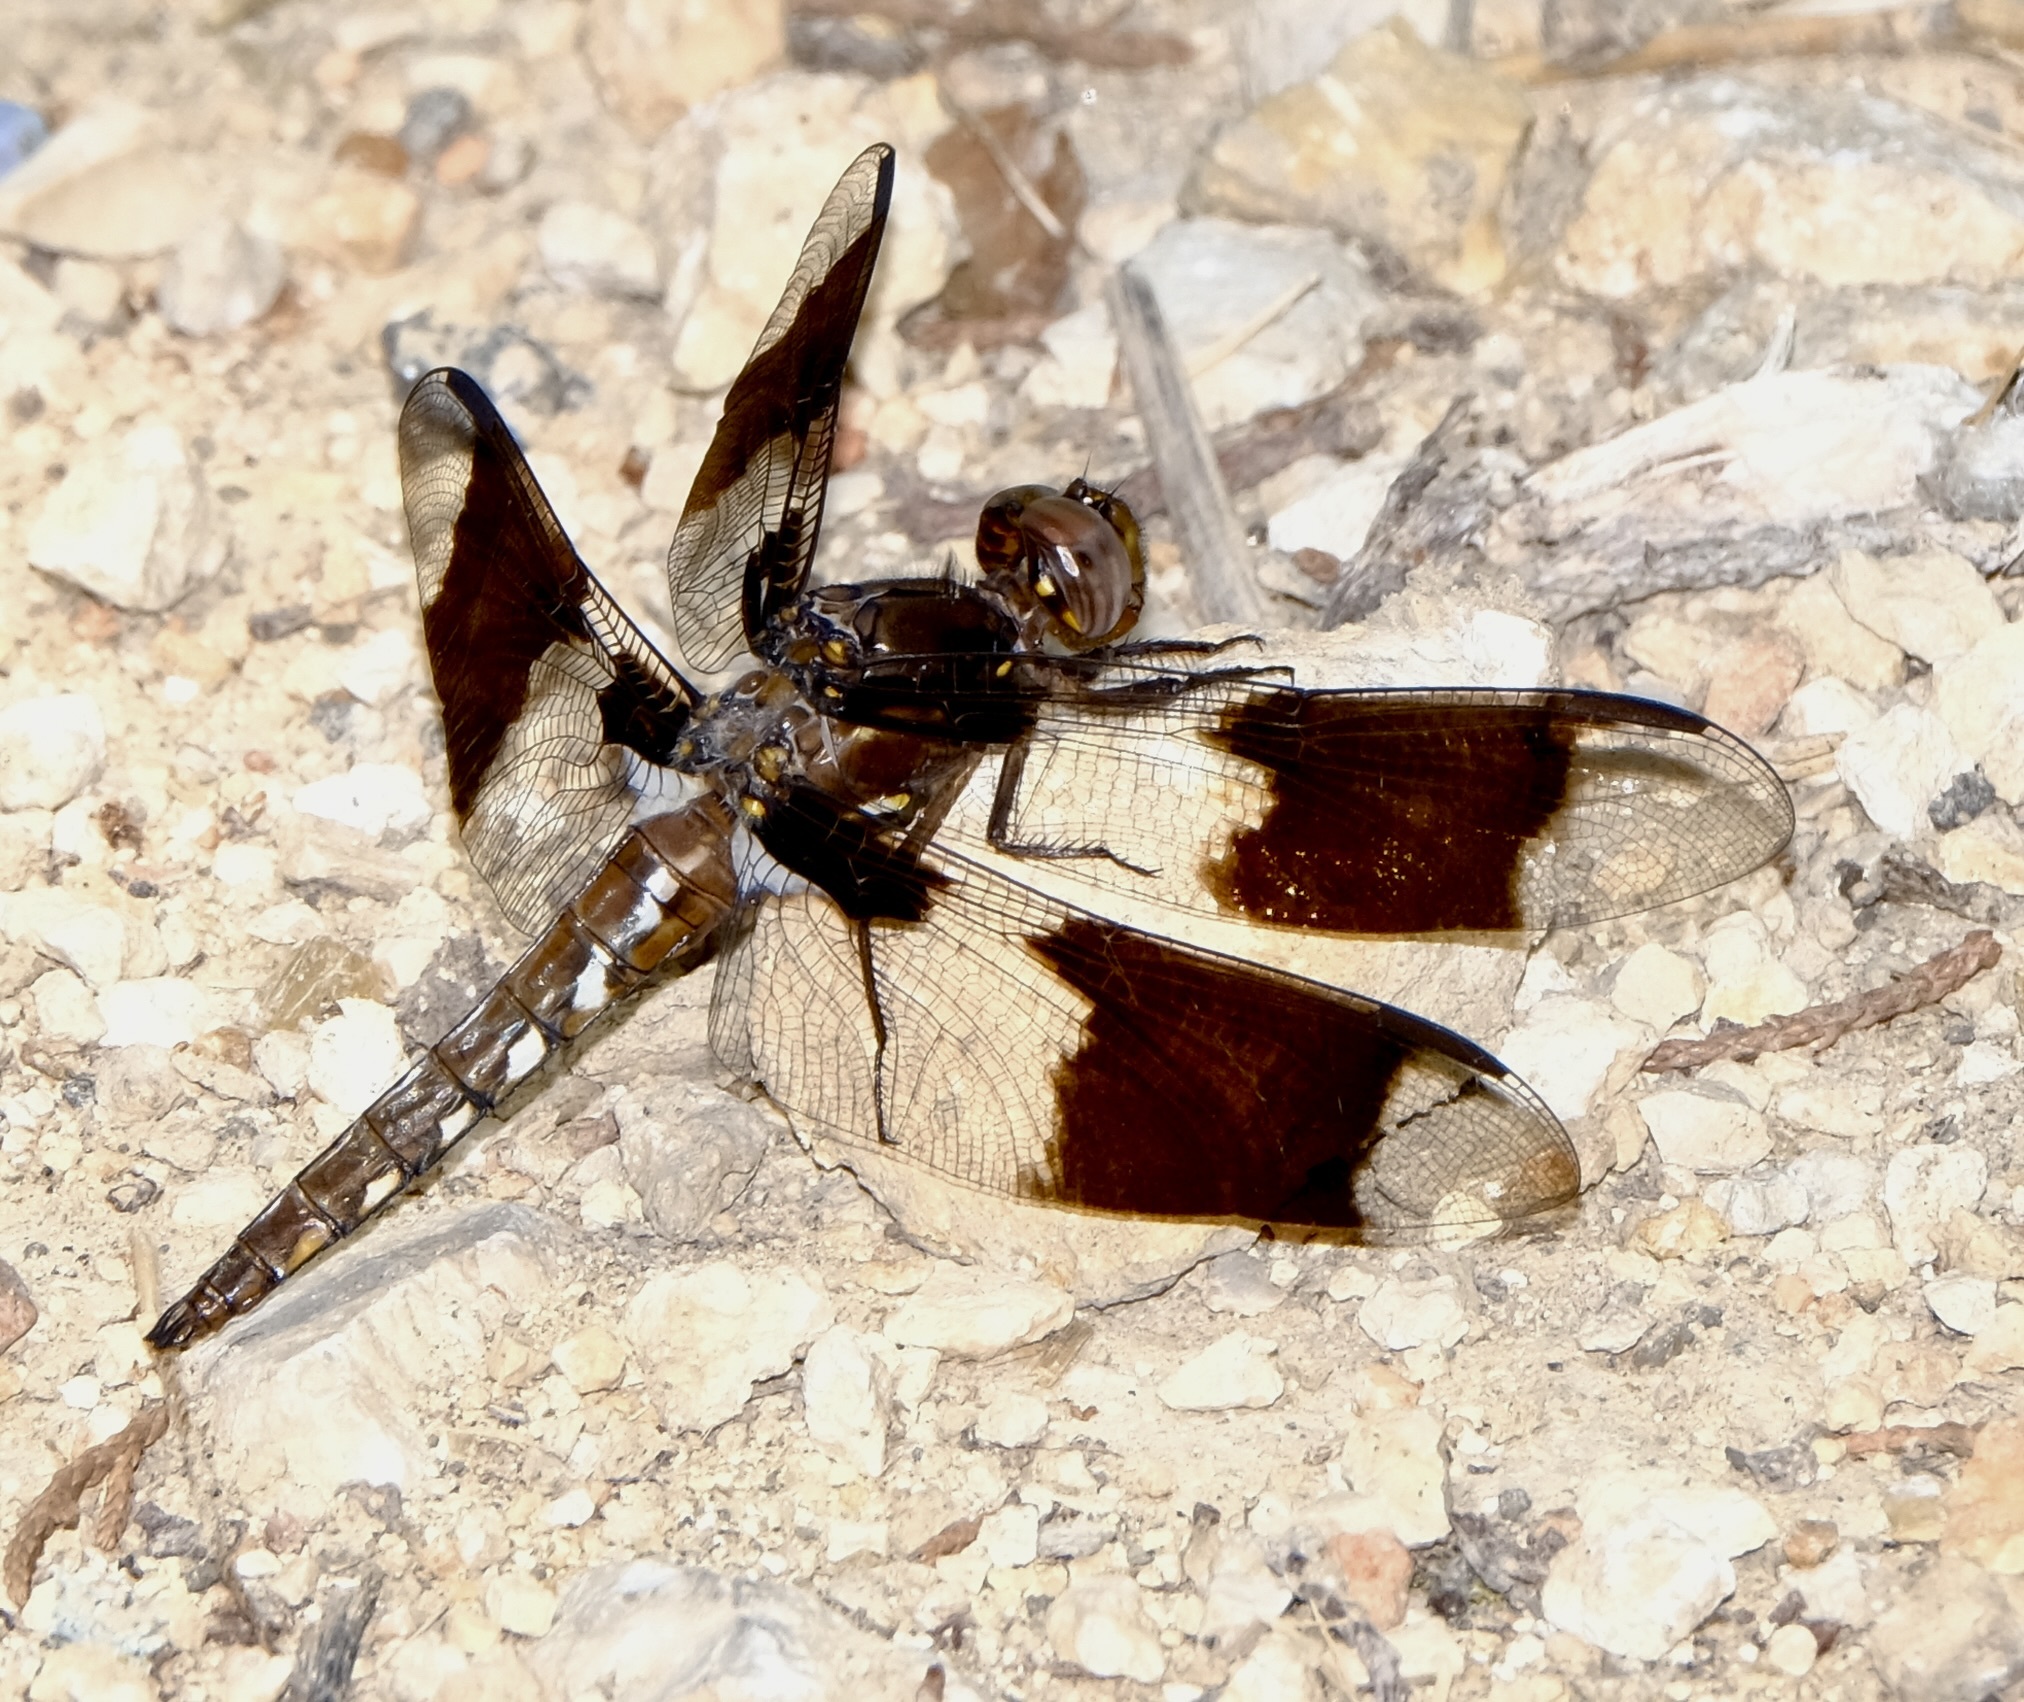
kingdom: Animalia
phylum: Arthropoda
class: Insecta
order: Odonata
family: Libellulidae
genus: Plathemis
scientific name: Plathemis lydia
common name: Common whitetail
